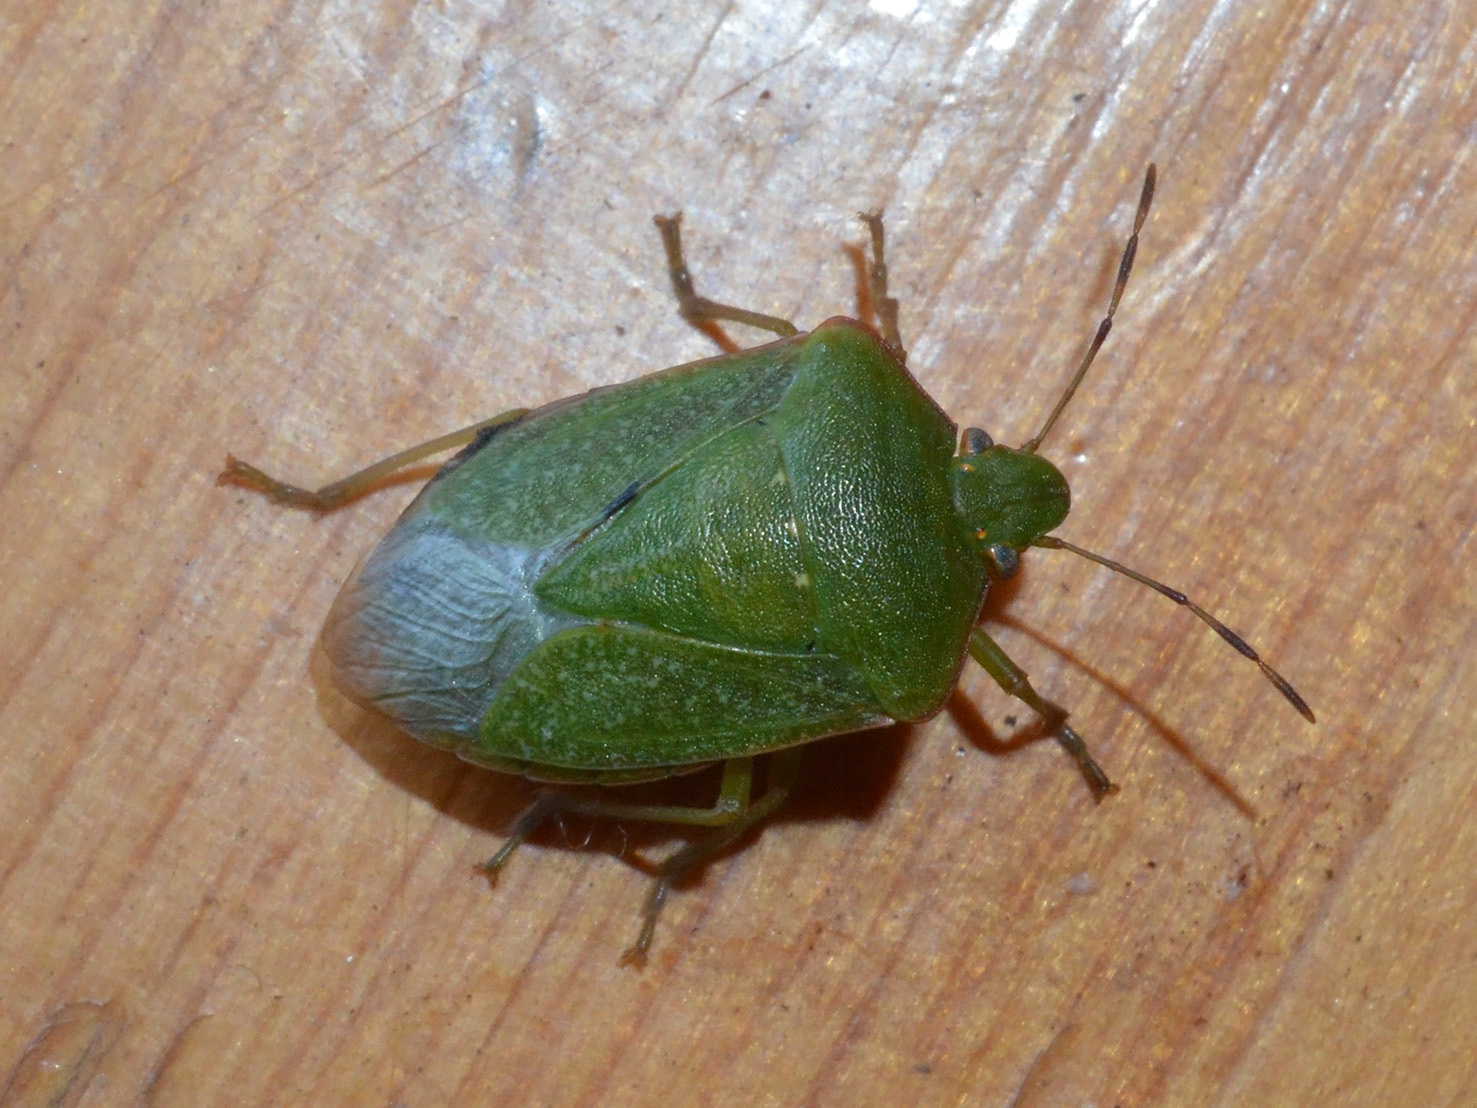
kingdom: Animalia
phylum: Arthropoda
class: Insecta
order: Hemiptera
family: Pentatomidae
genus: Nezara
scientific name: Nezara viridula
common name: Southern green stink bug
